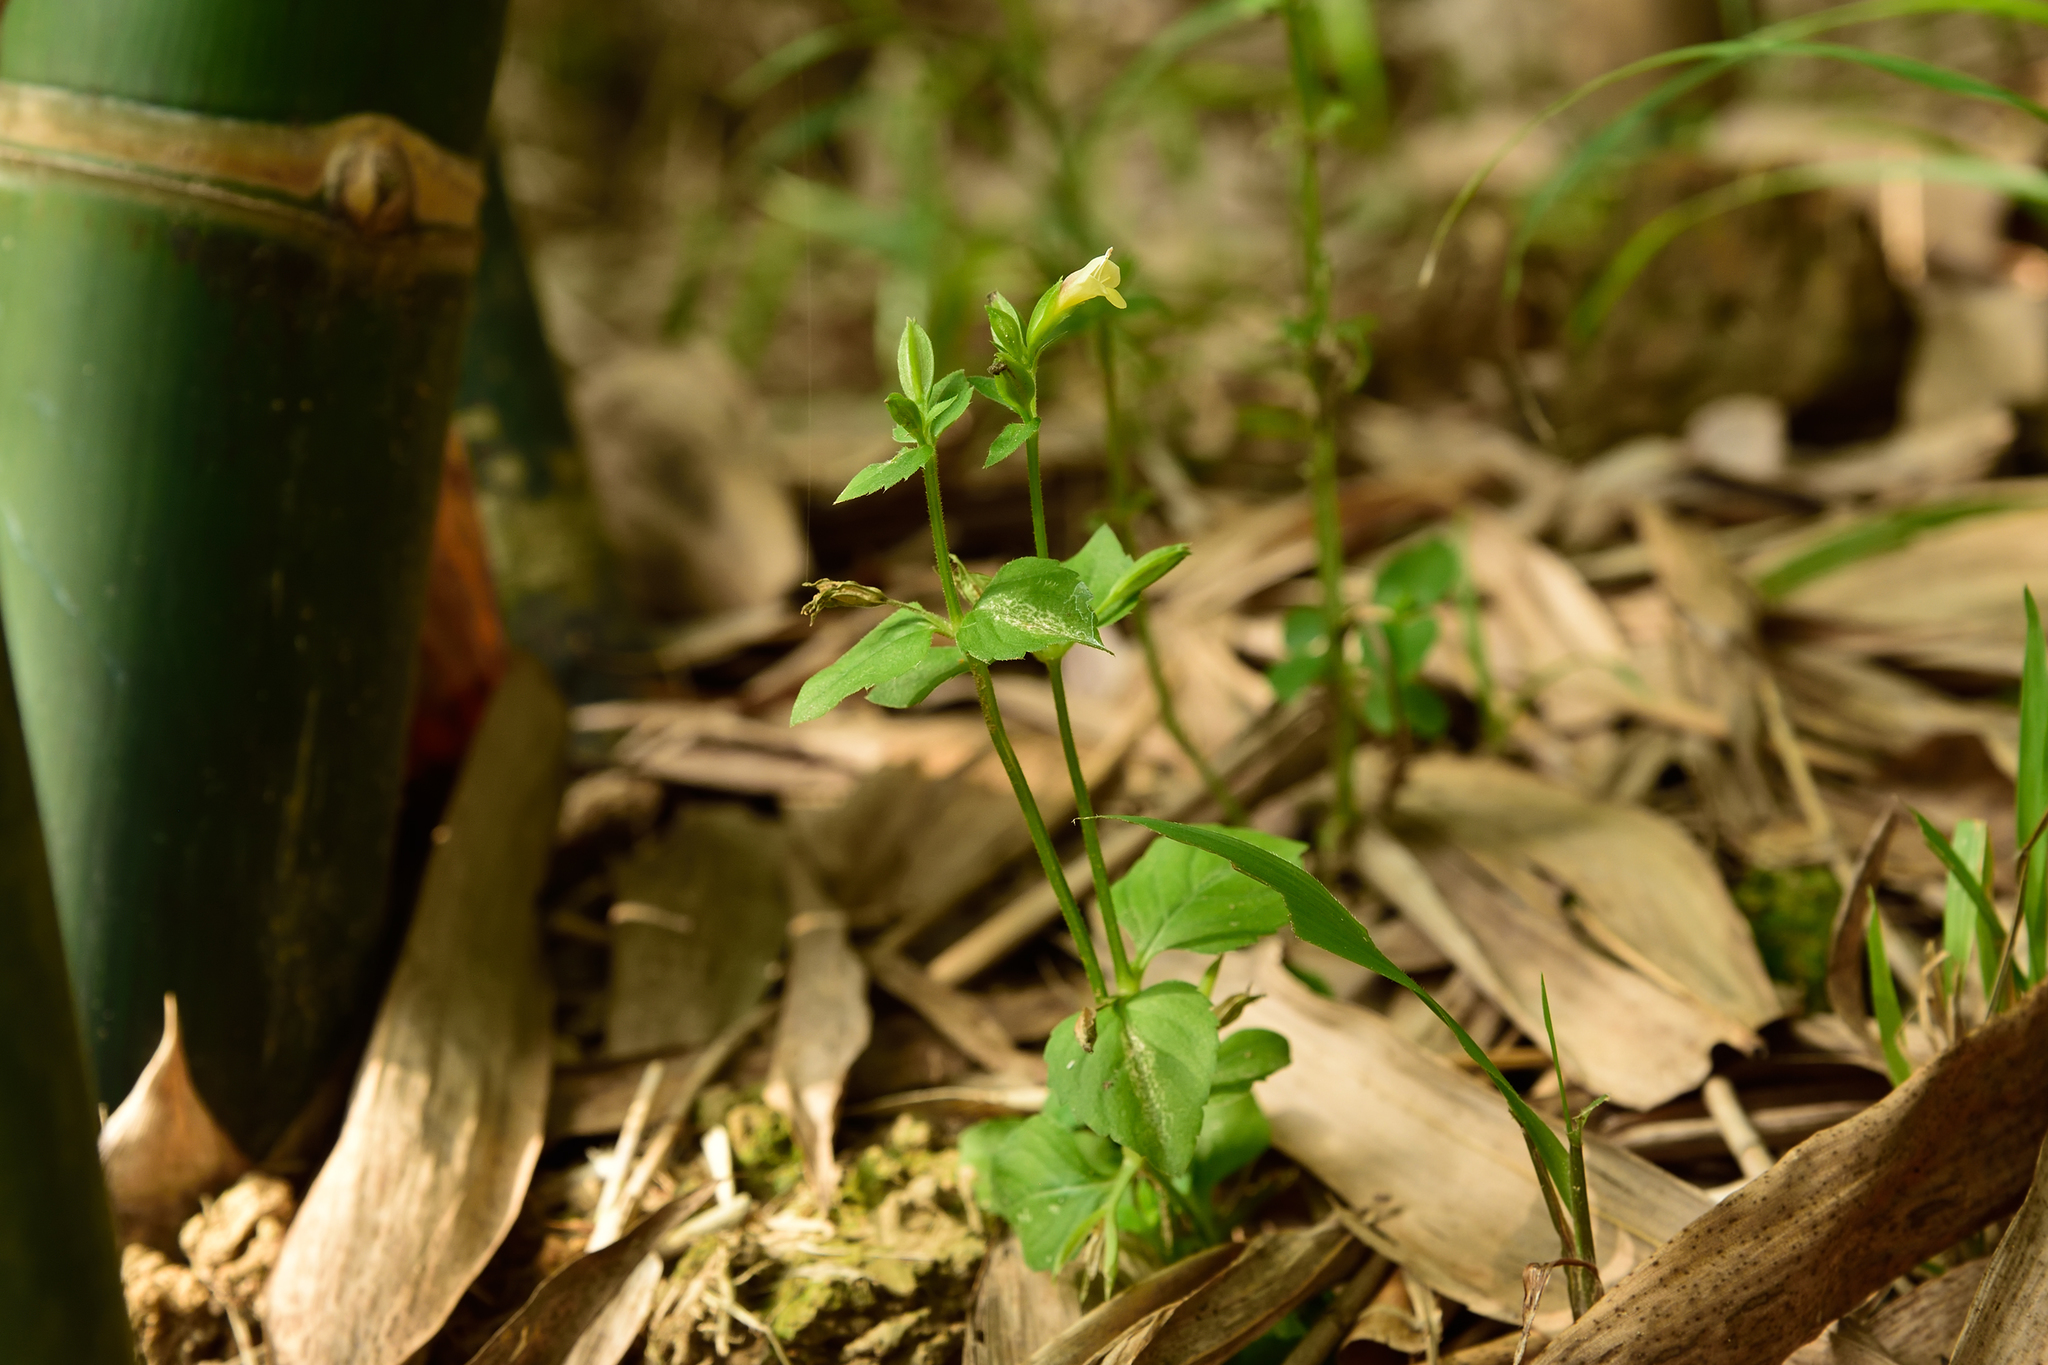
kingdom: Plantae
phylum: Tracheophyta
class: Magnoliopsida
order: Lamiales
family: Linderniaceae
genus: Torenia
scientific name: Torenia flava
